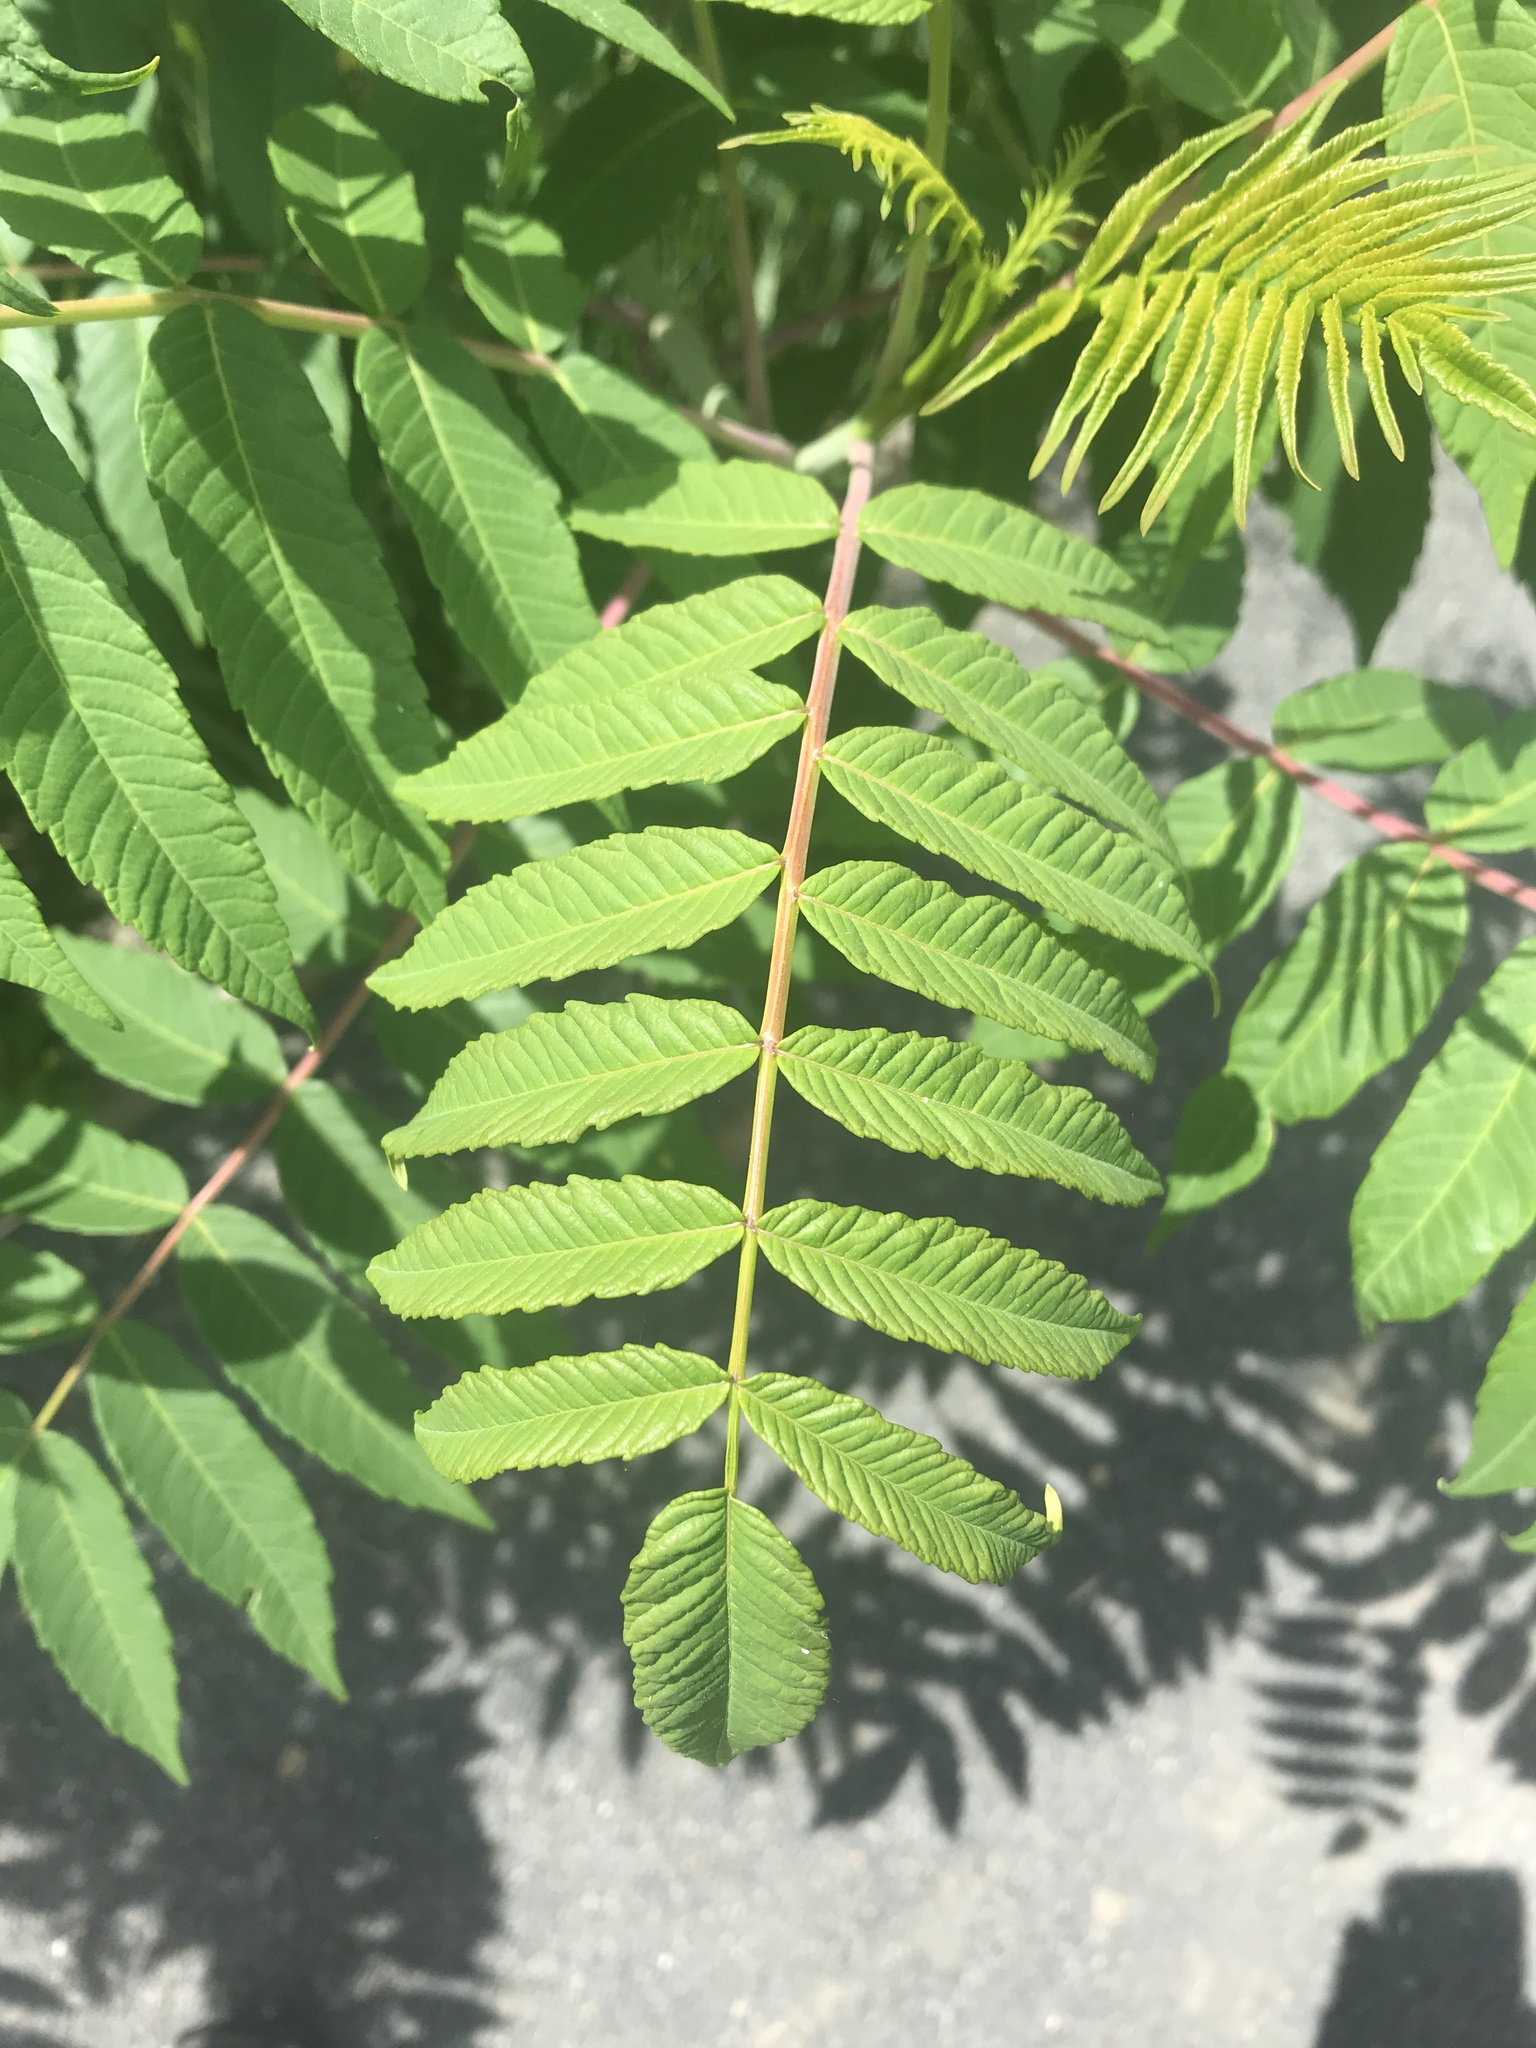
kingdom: Plantae
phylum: Tracheophyta
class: Magnoliopsida
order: Sapindales
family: Anacardiaceae
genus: Rhus
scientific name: Rhus glabra
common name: Scarlet sumac
